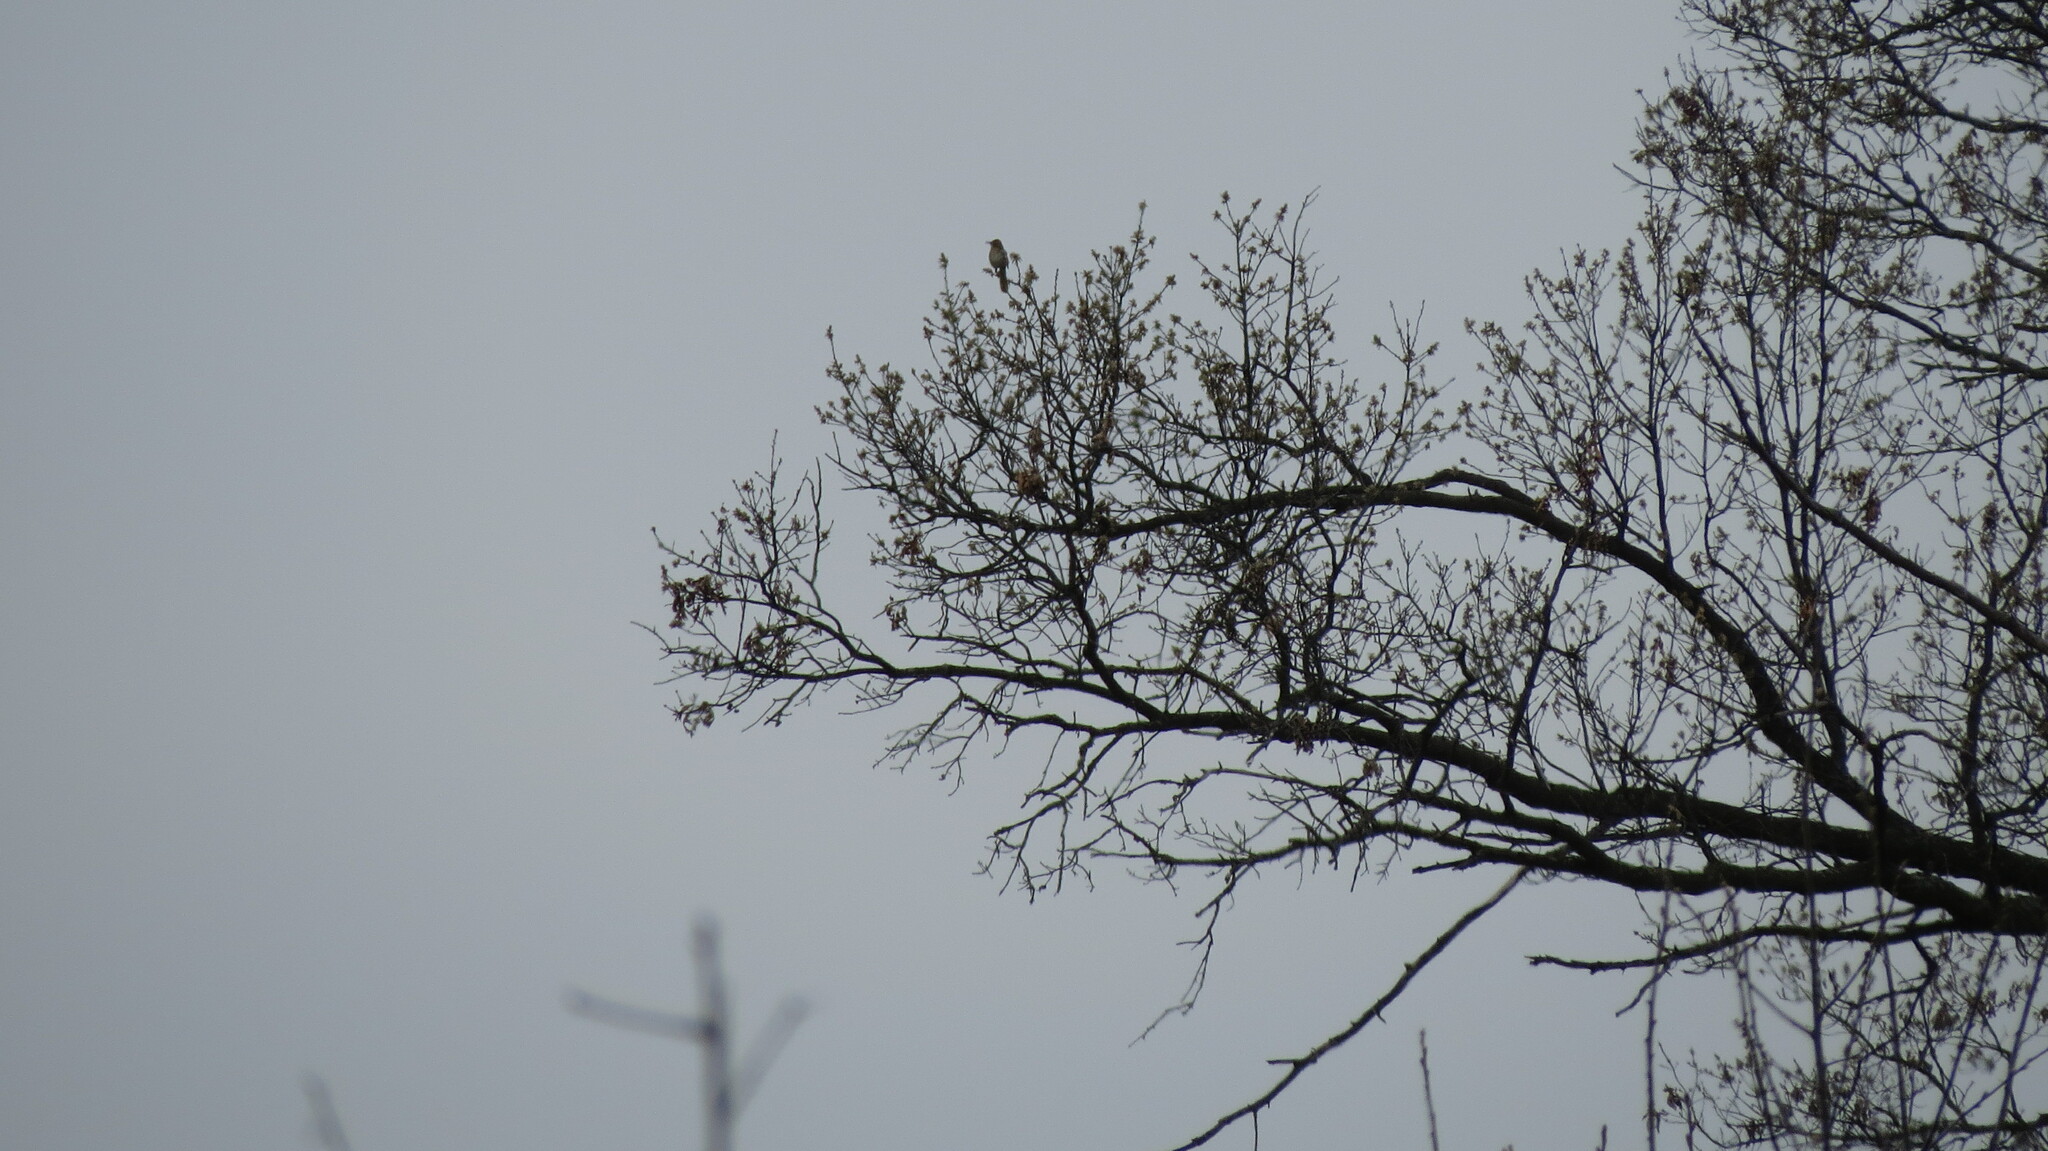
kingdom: Animalia
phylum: Chordata
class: Aves
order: Passeriformes
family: Mimidae
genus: Toxostoma
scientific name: Toxostoma rufum
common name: Brown thrasher
